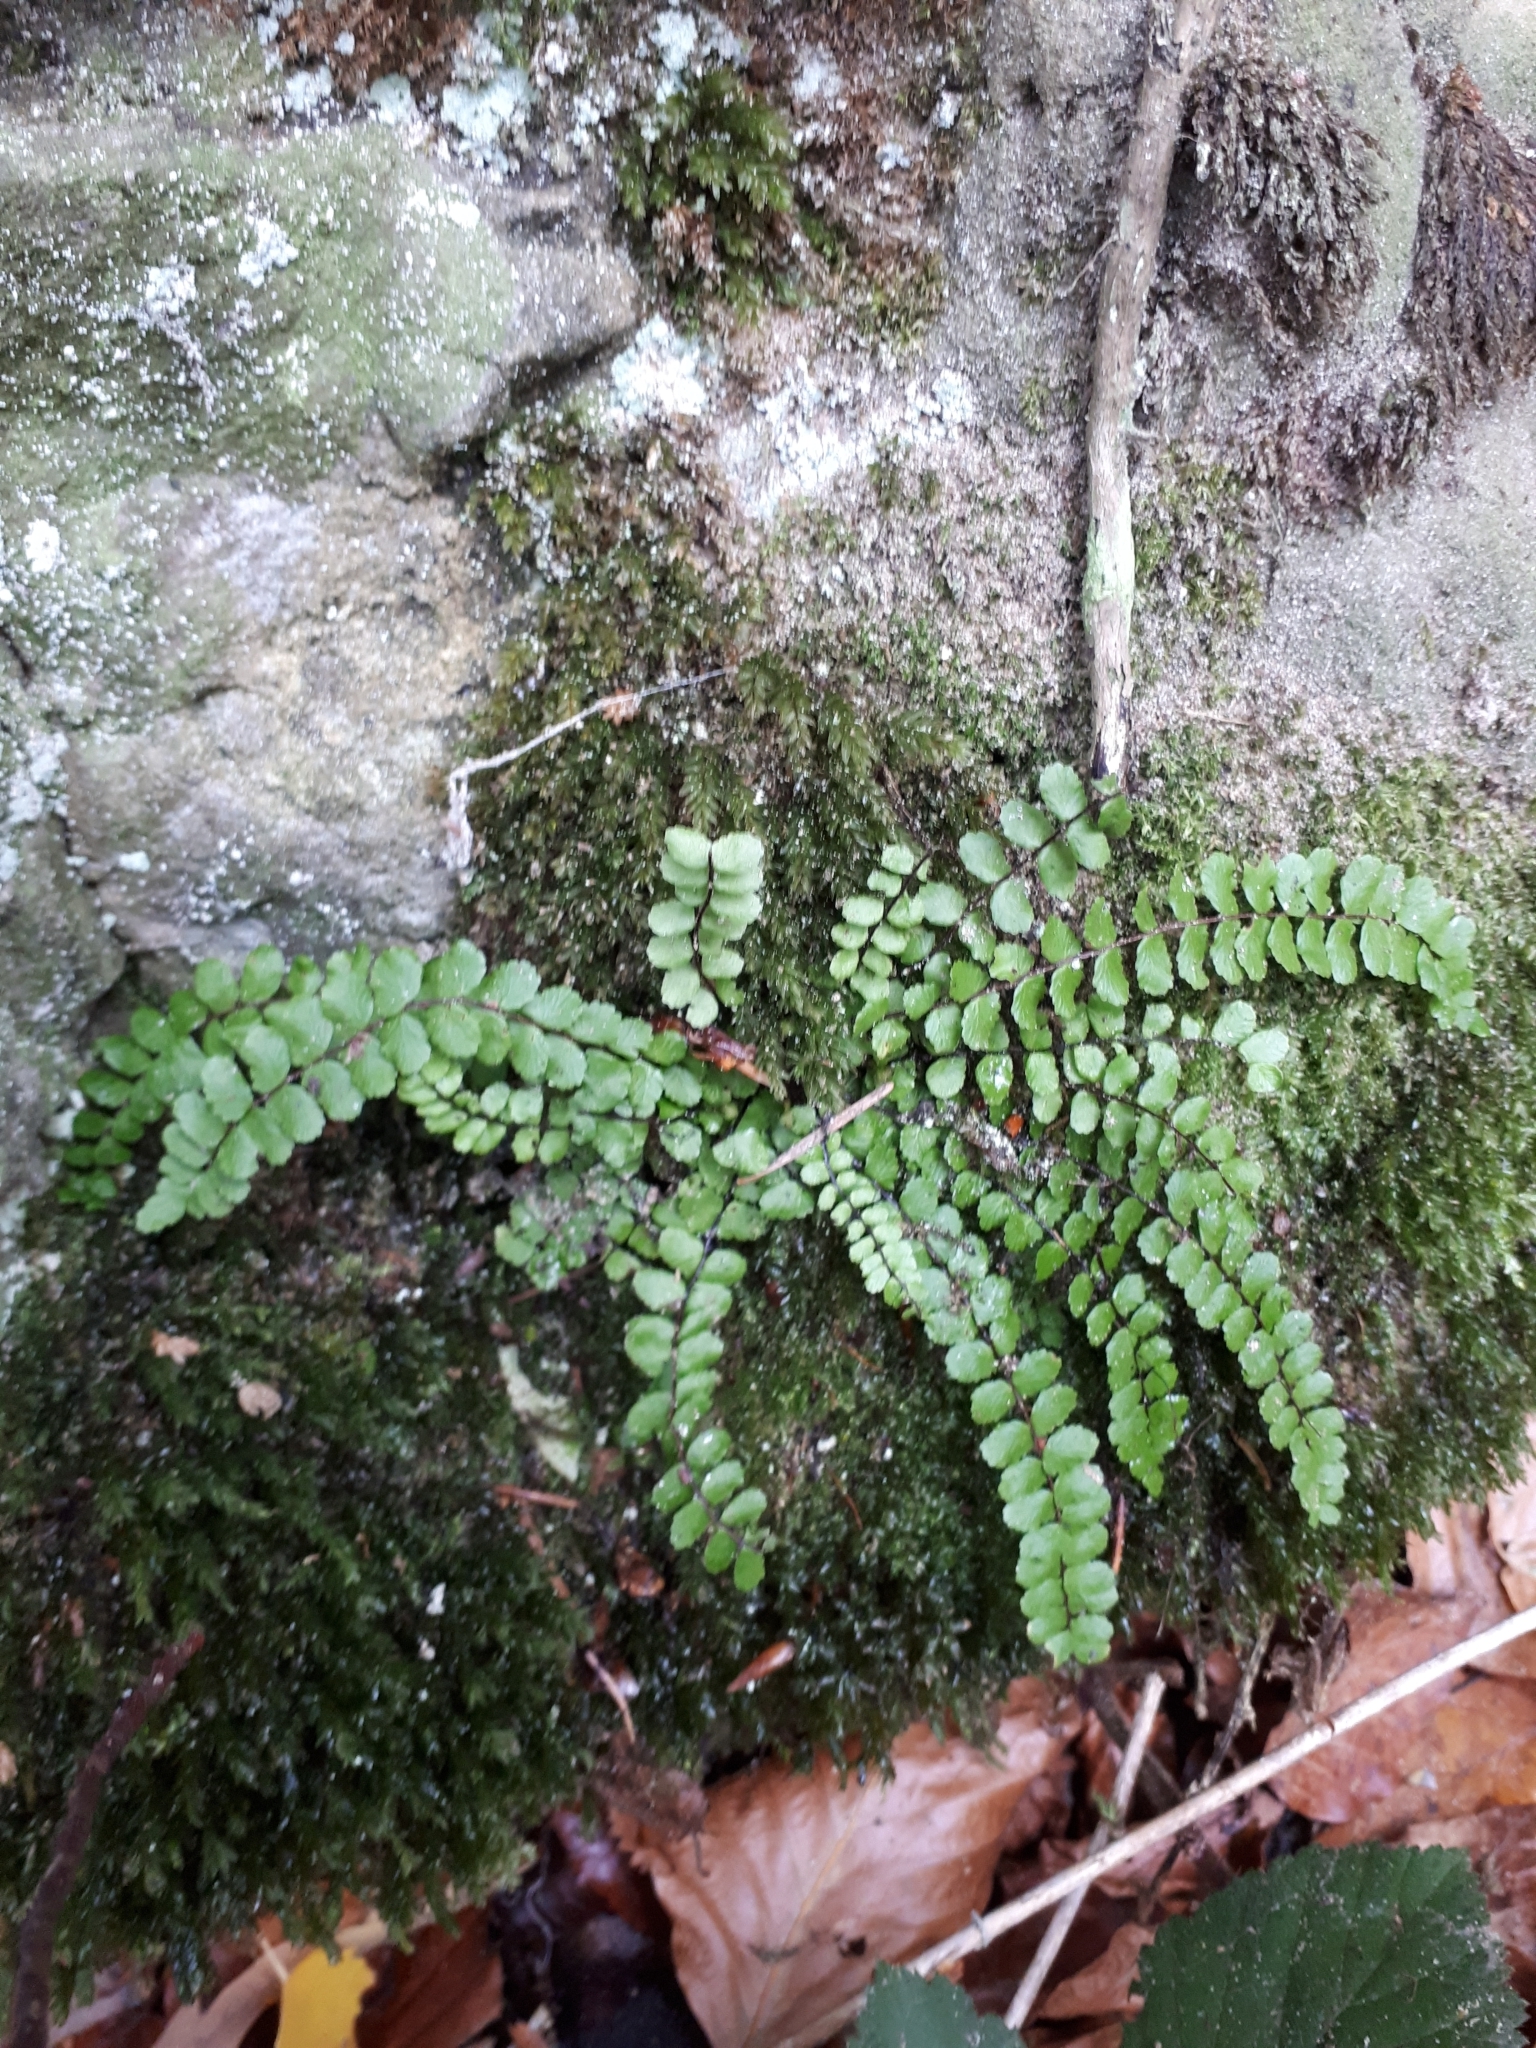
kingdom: Plantae
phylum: Tracheophyta
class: Polypodiopsida
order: Polypodiales
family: Aspleniaceae
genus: Asplenium
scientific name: Asplenium trichomanes
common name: Maidenhair spleenwort
